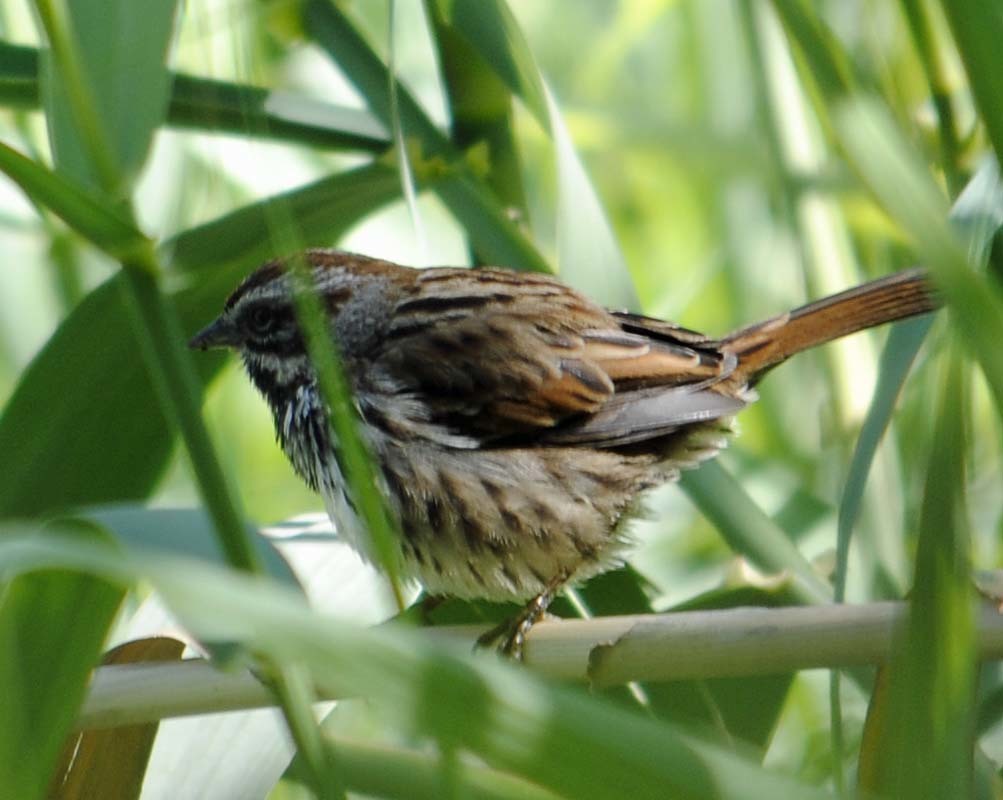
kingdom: Animalia
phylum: Chordata
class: Aves
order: Passeriformes
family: Passerellidae
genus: Melospiza
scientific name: Melospiza melodia
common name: Song sparrow
